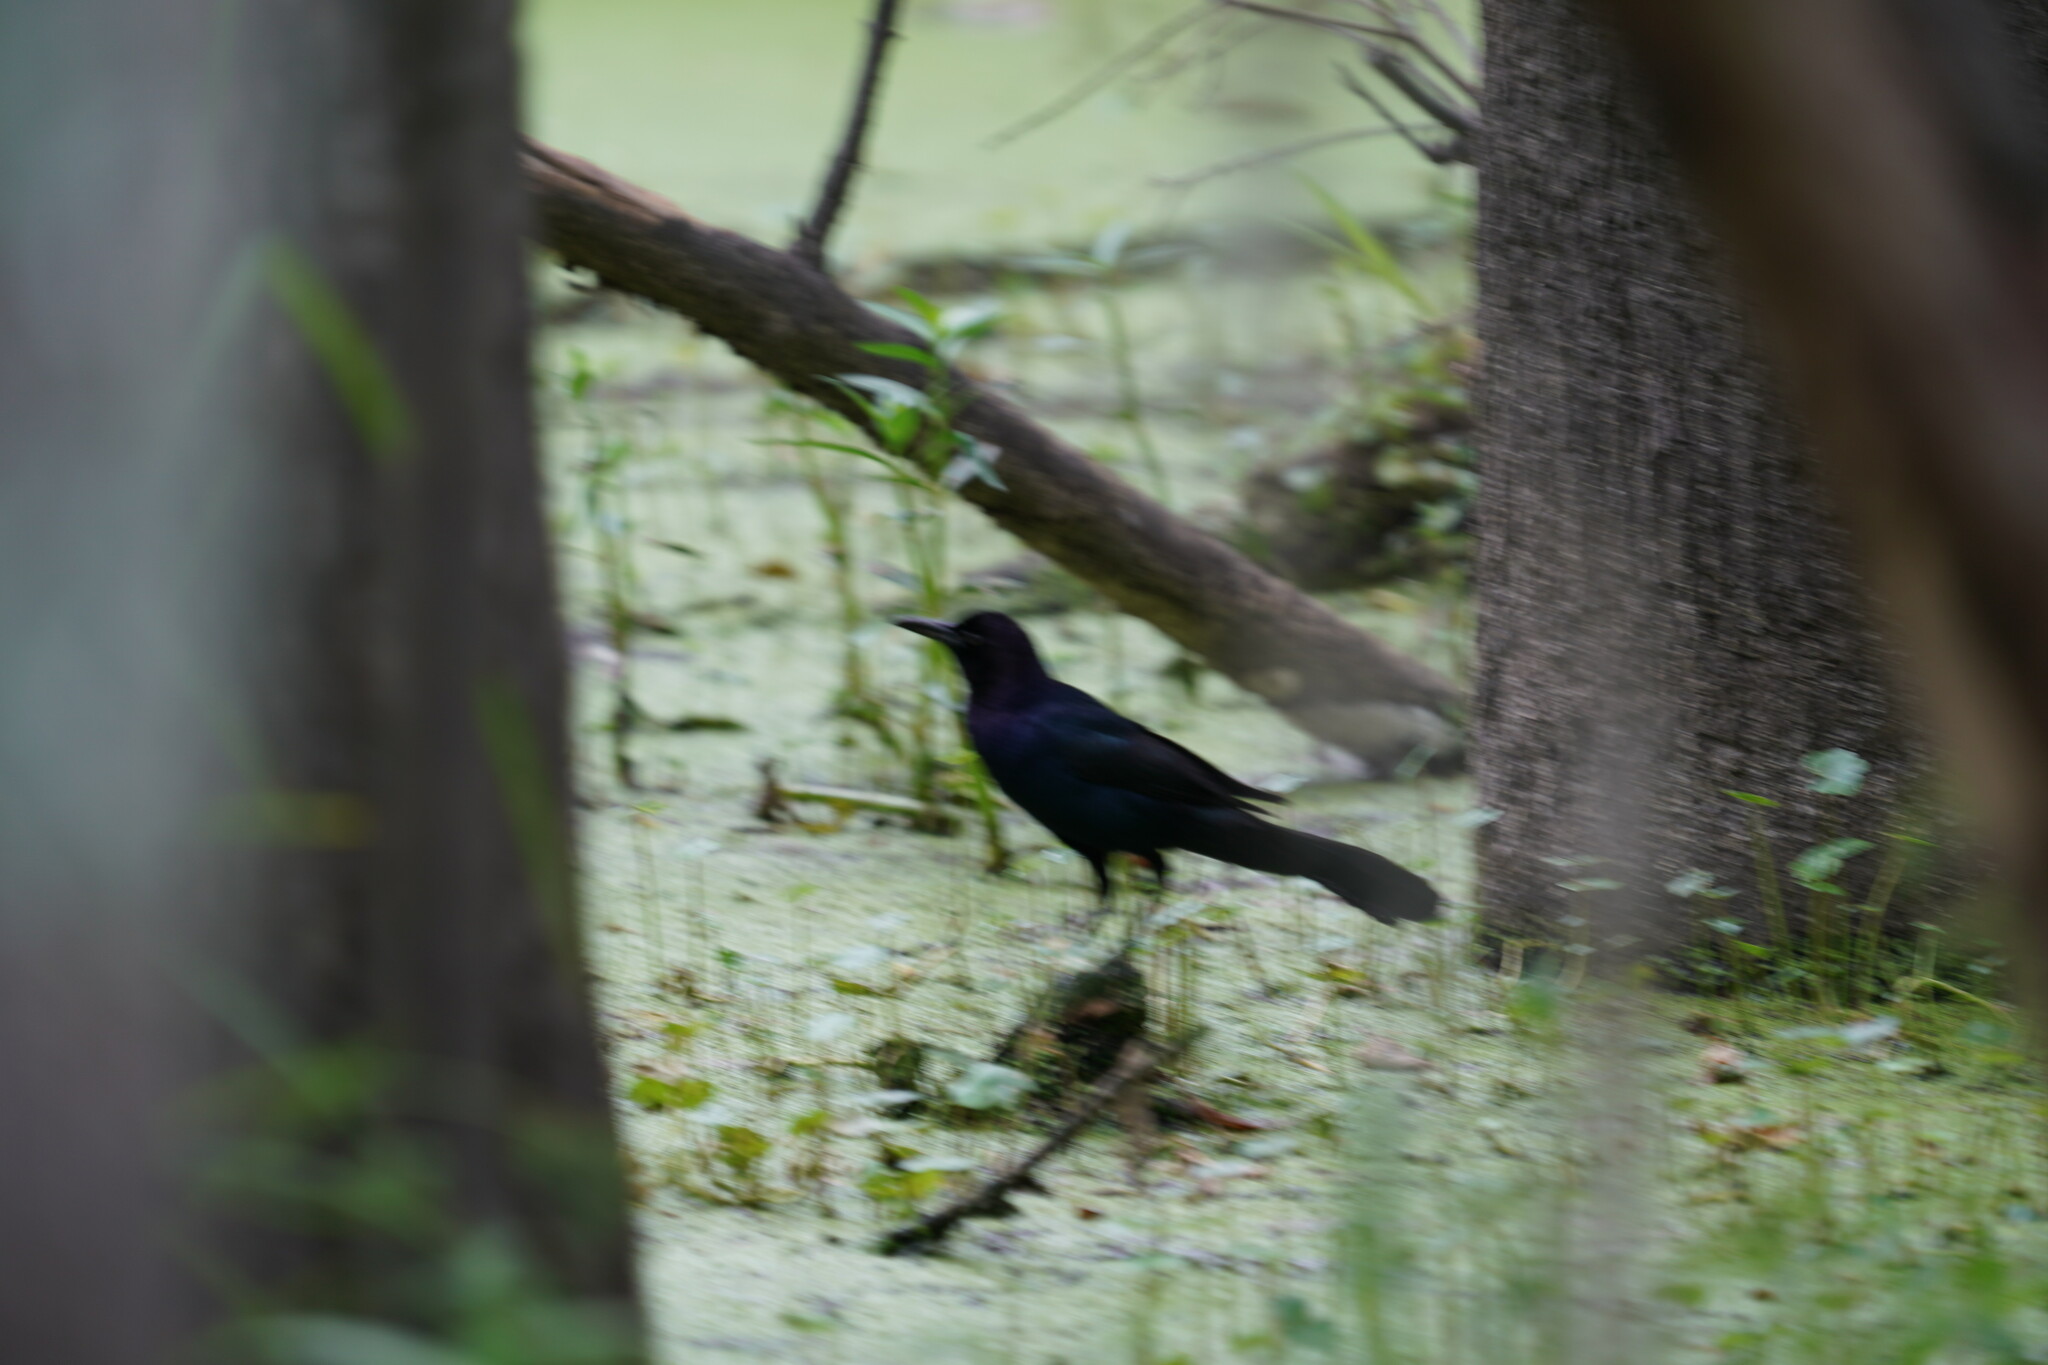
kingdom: Animalia
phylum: Chordata
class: Aves
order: Passeriformes
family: Icteridae
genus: Quiscalus
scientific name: Quiscalus major
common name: Boat-tailed grackle
